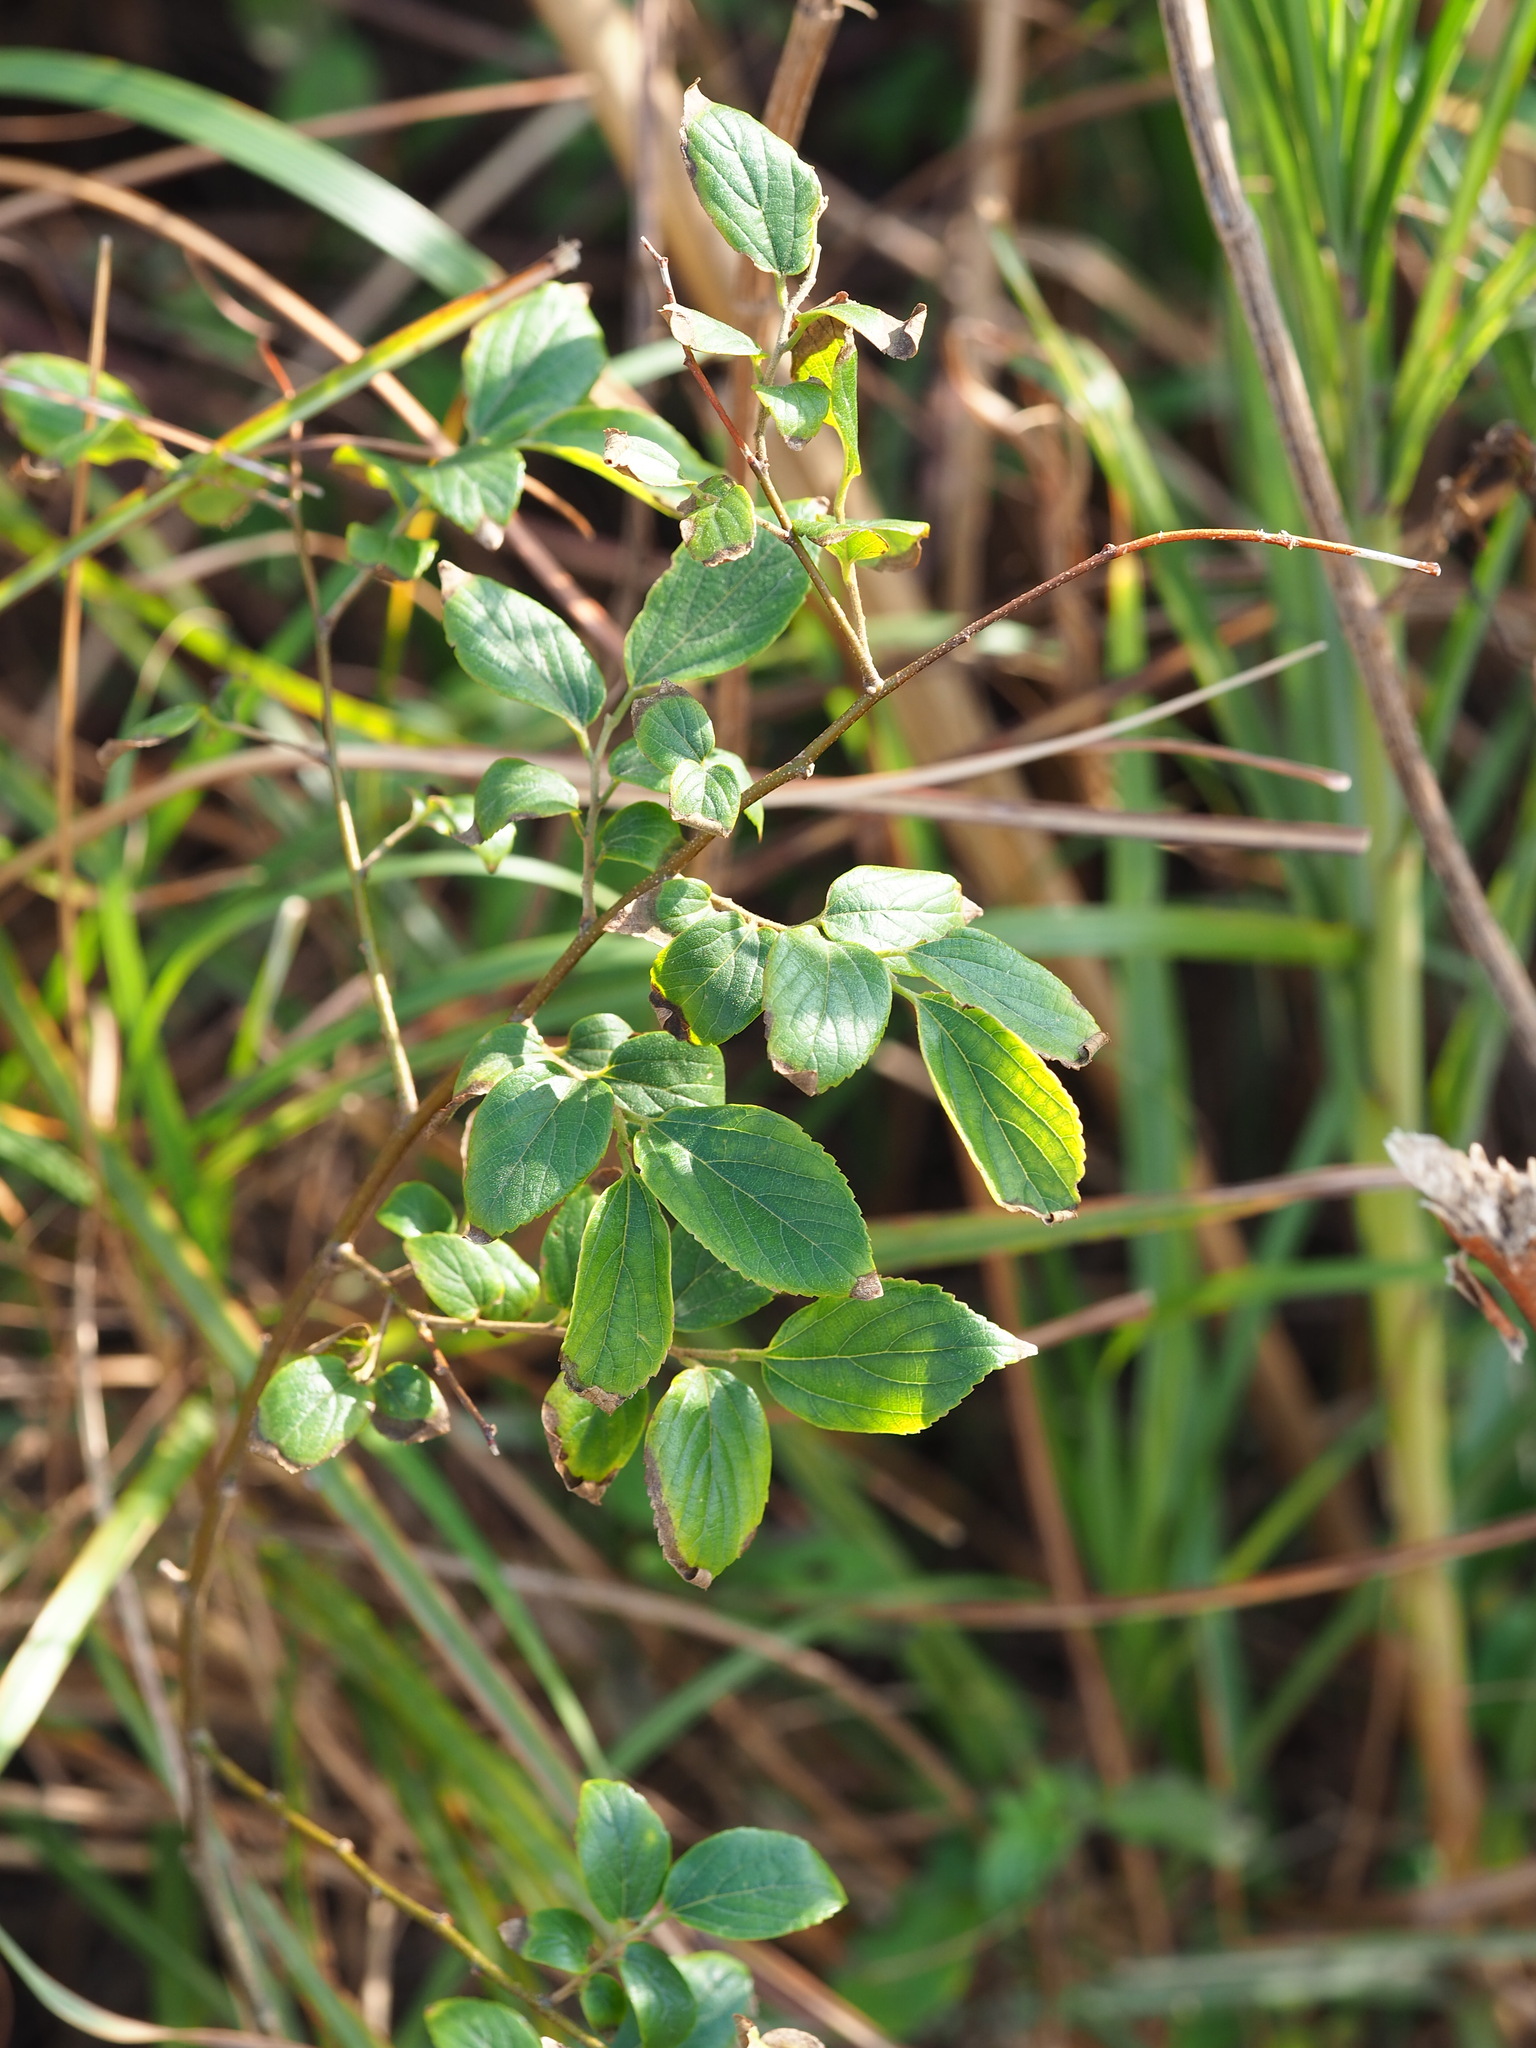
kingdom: Plantae
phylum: Tracheophyta
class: Magnoliopsida
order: Rosales
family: Cannabaceae
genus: Celtis
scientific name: Celtis sinensis
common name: Chinese hackberry
